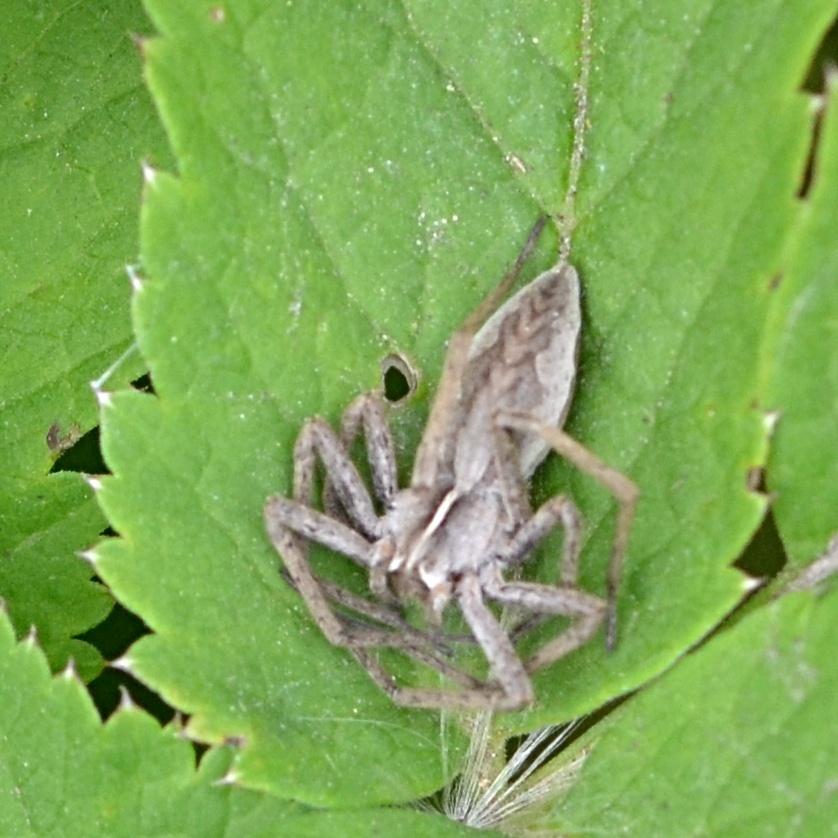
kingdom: Animalia
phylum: Arthropoda
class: Arachnida
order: Araneae
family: Pisauridae
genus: Pisaura
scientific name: Pisaura mirabilis
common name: Tent spider
